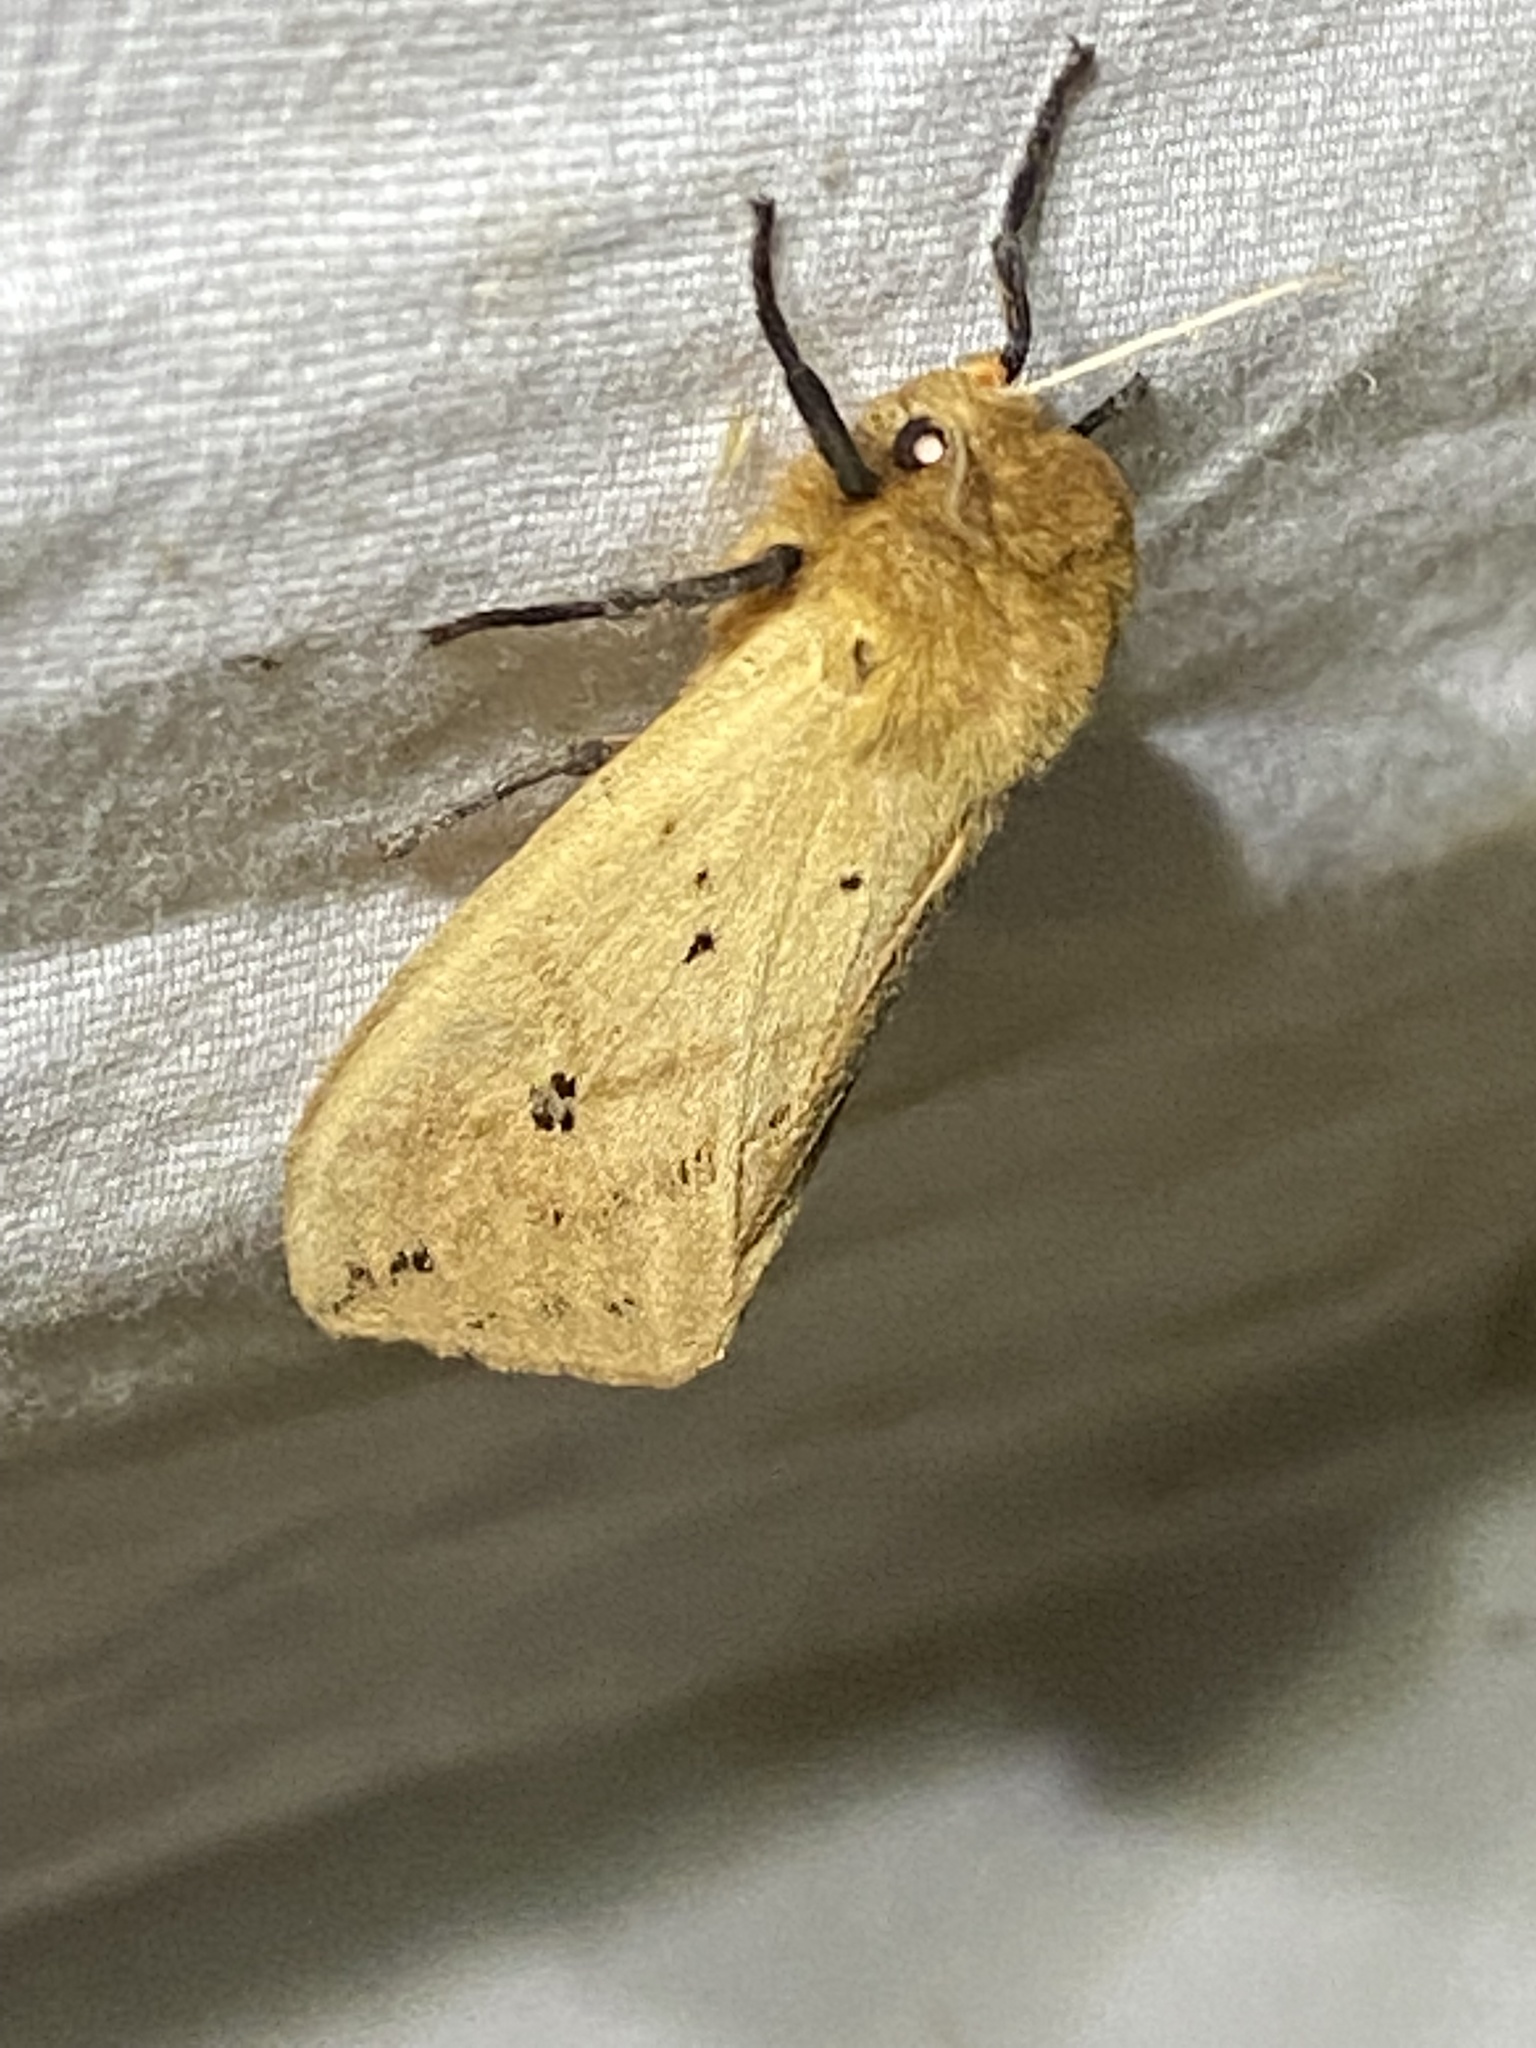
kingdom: Animalia
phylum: Arthropoda
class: Insecta
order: Lepidoptera
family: Erebidae
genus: Pyrrharctia
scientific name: Pyrrharctia isabella
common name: Isabella tiger moth
